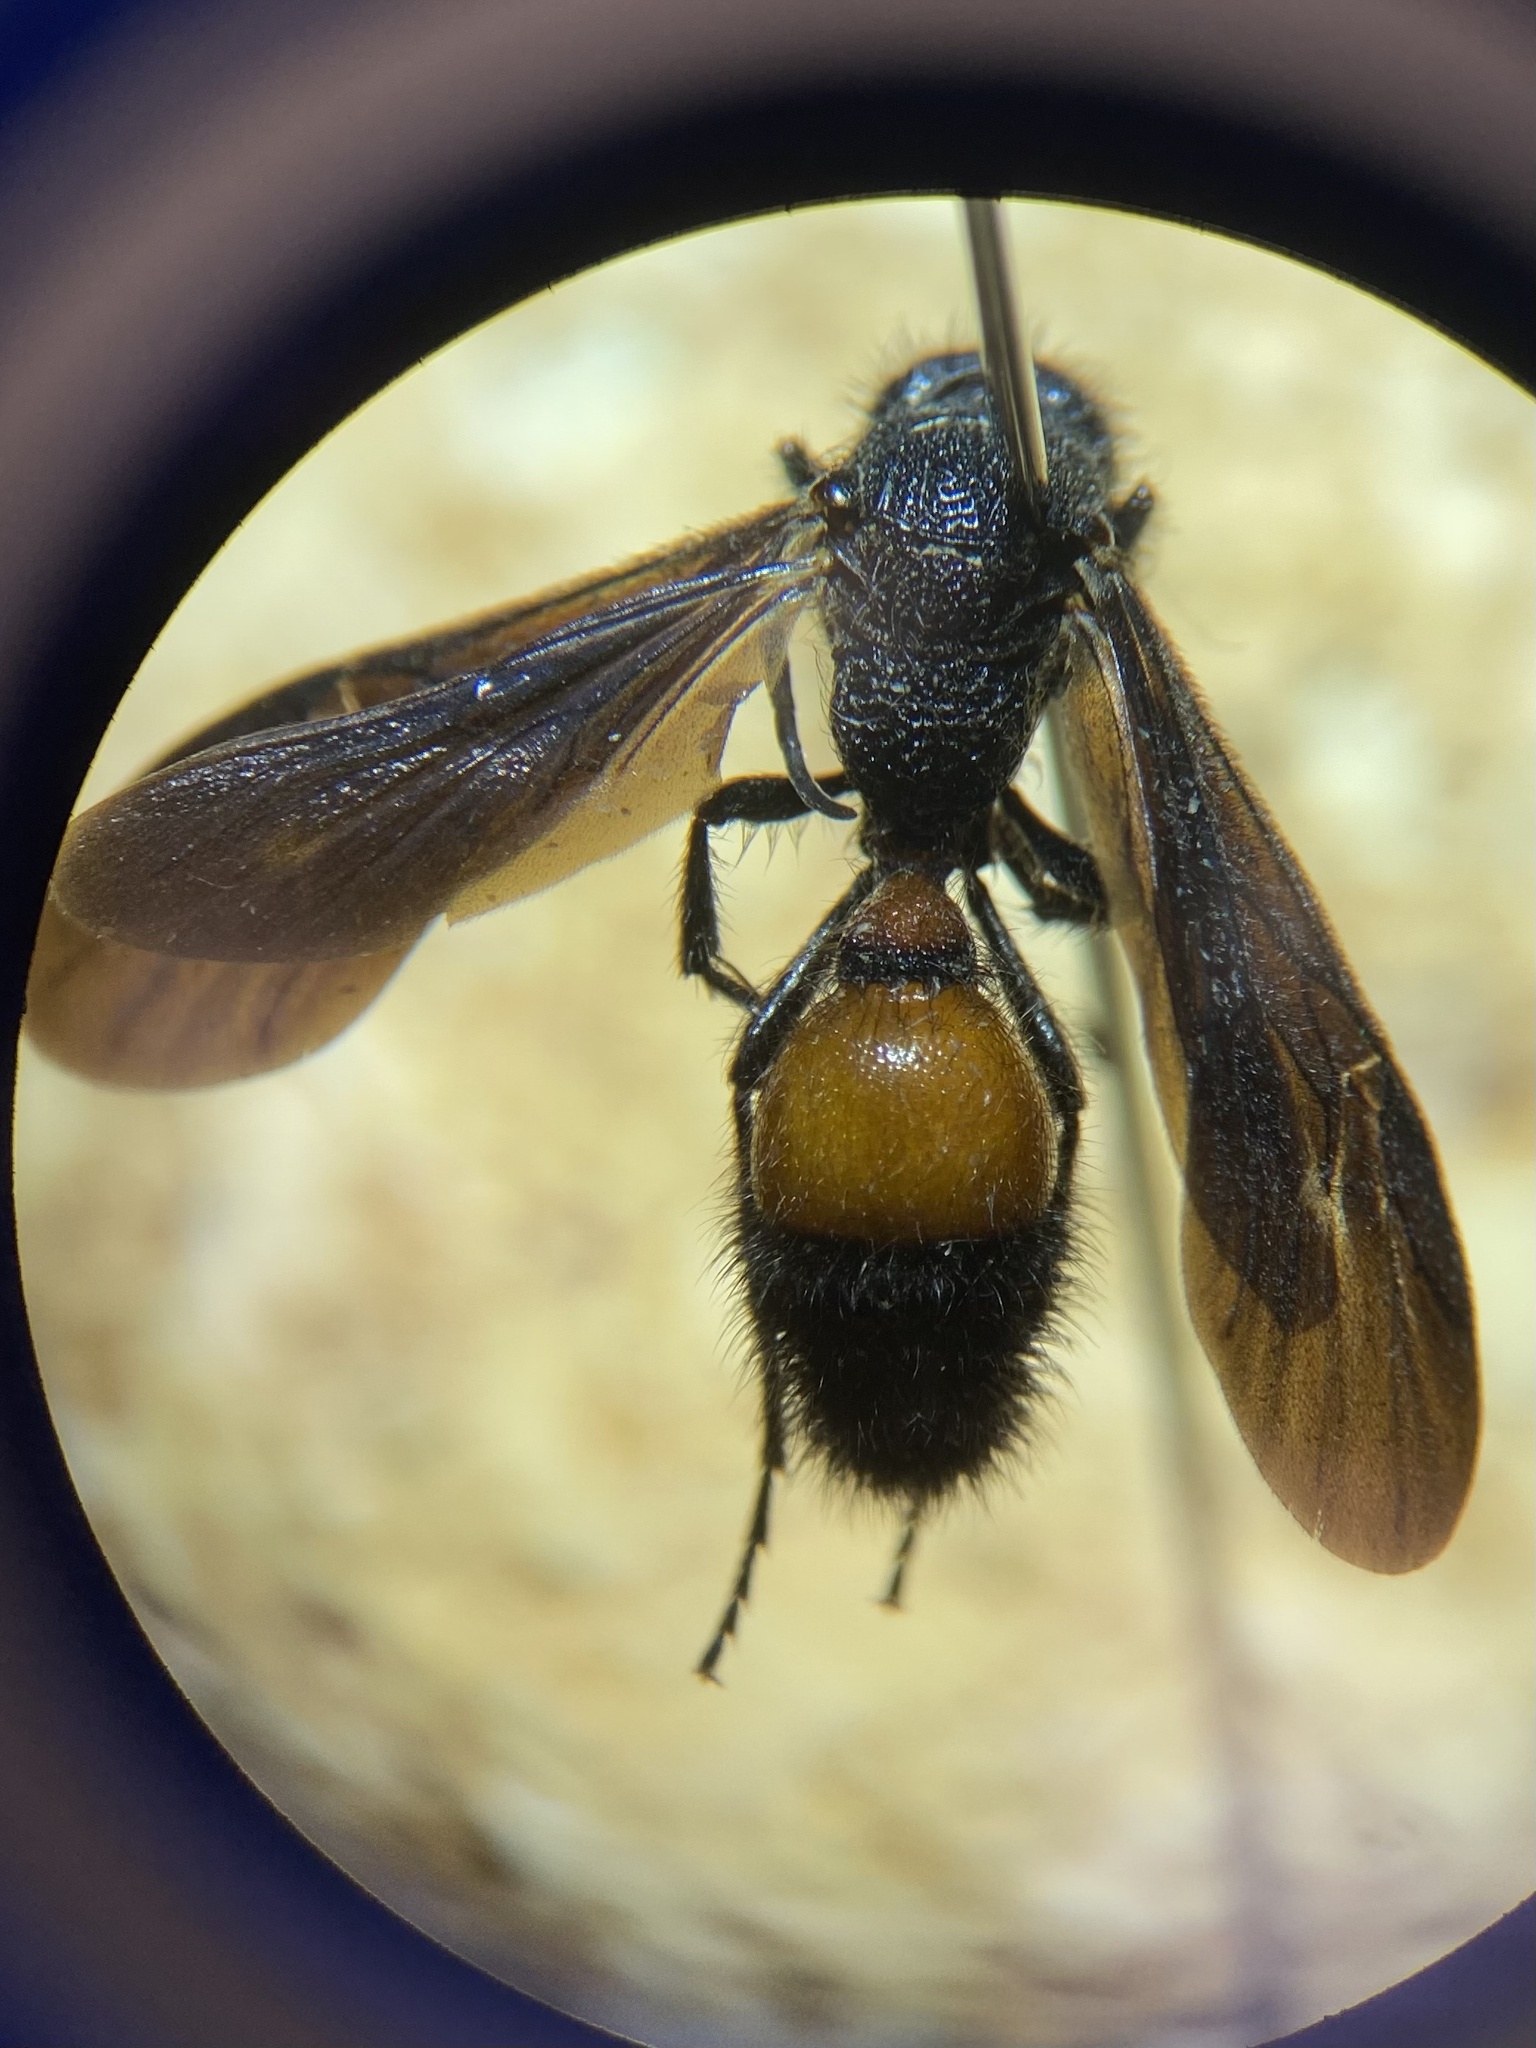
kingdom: Animalia
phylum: Arthropoda
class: Insecta
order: Hymenoptera
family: Mutillidae
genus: Sphaeropthalma
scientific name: Sphaeropthalma
